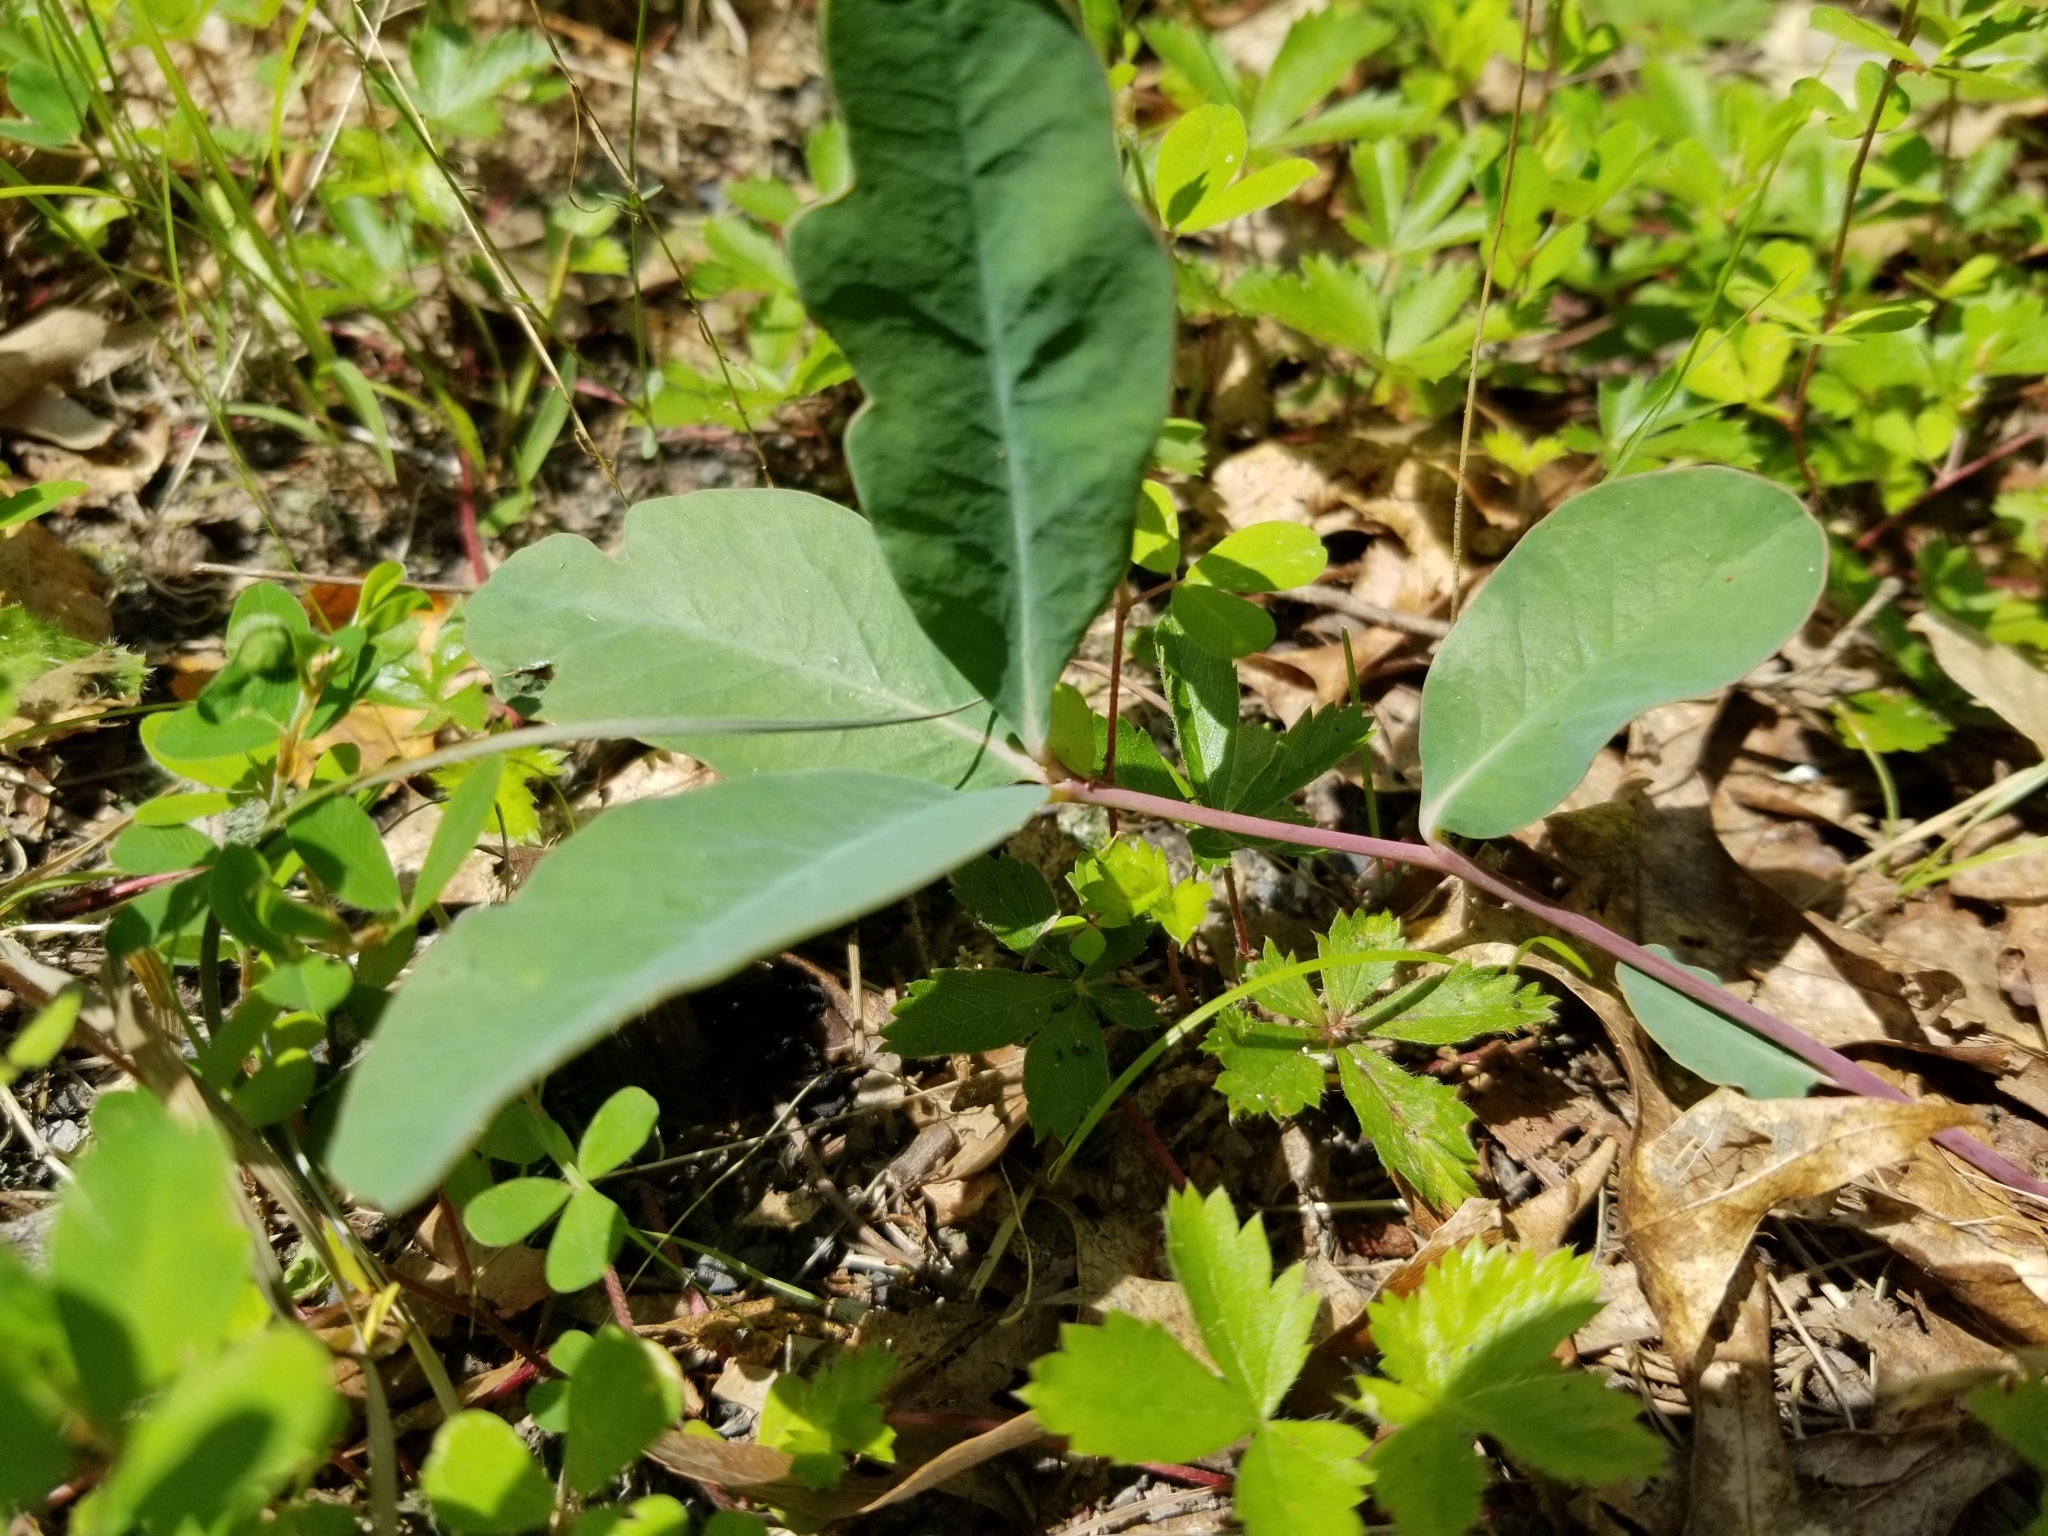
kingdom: Plantae
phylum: Tracheophyta
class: Magnoliopsida
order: Malpighiales
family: Euphorbiaceae
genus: Euphorbia
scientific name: Euphorbia ipecacuanhae
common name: Carolina ipecac
